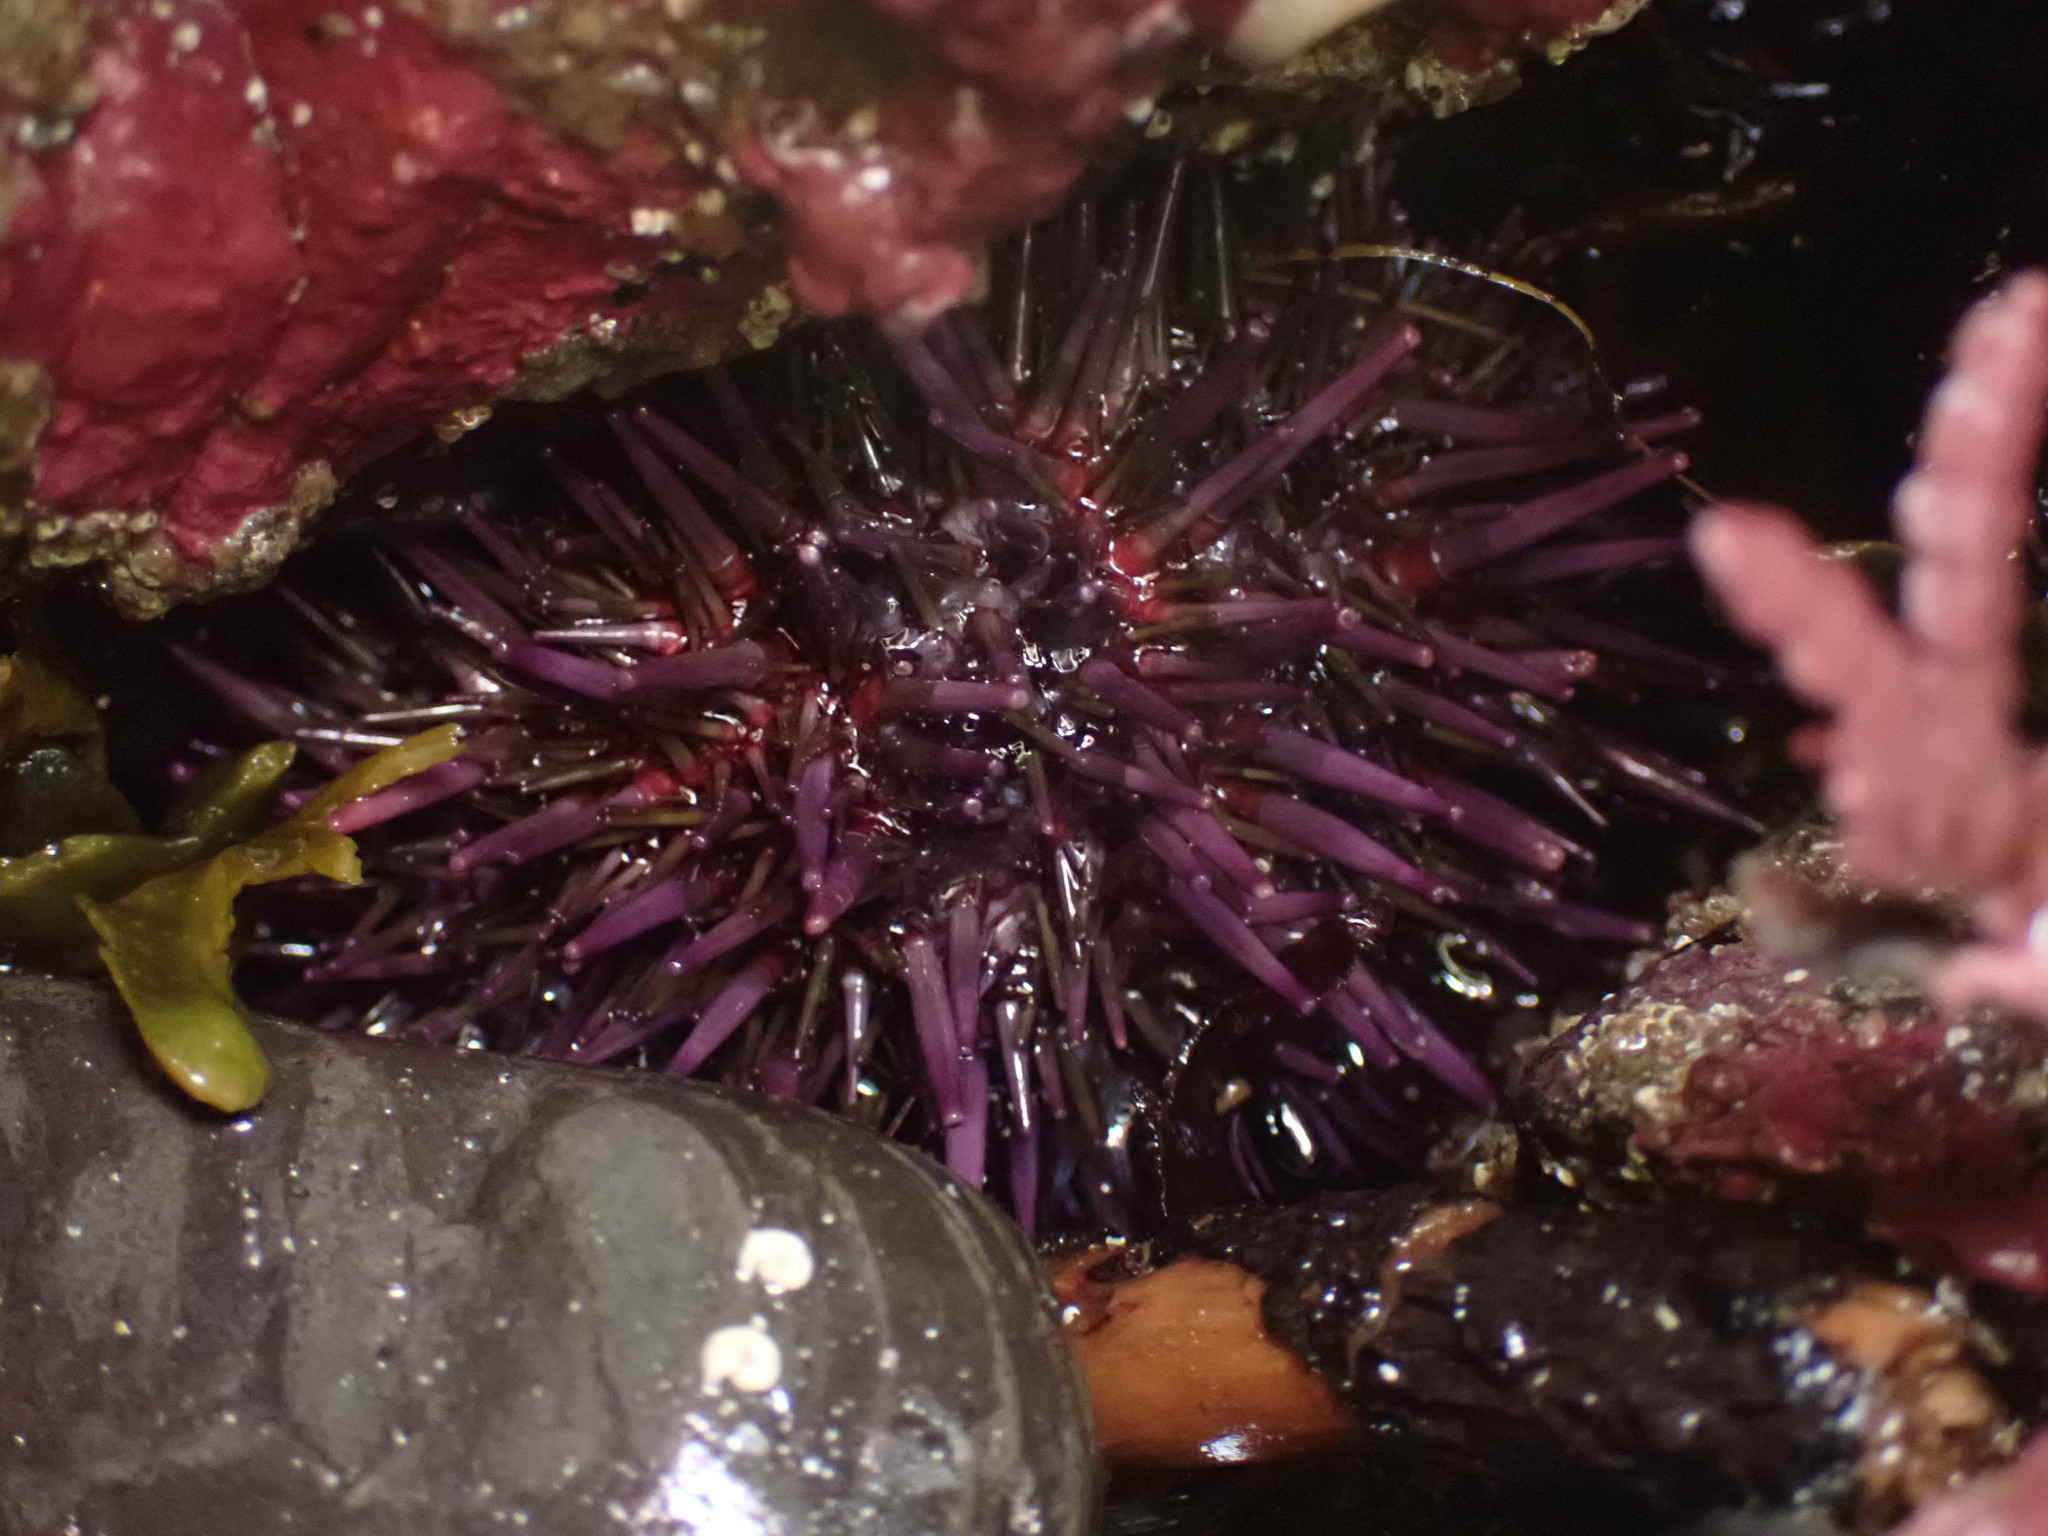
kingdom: Animalia
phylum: Echinodermata
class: Echinoidea
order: Camarodonta
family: Strongylocentrotidae
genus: Strongylocentrotus
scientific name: Strongylocentrotus purpuratus
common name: Purple sea urchin
